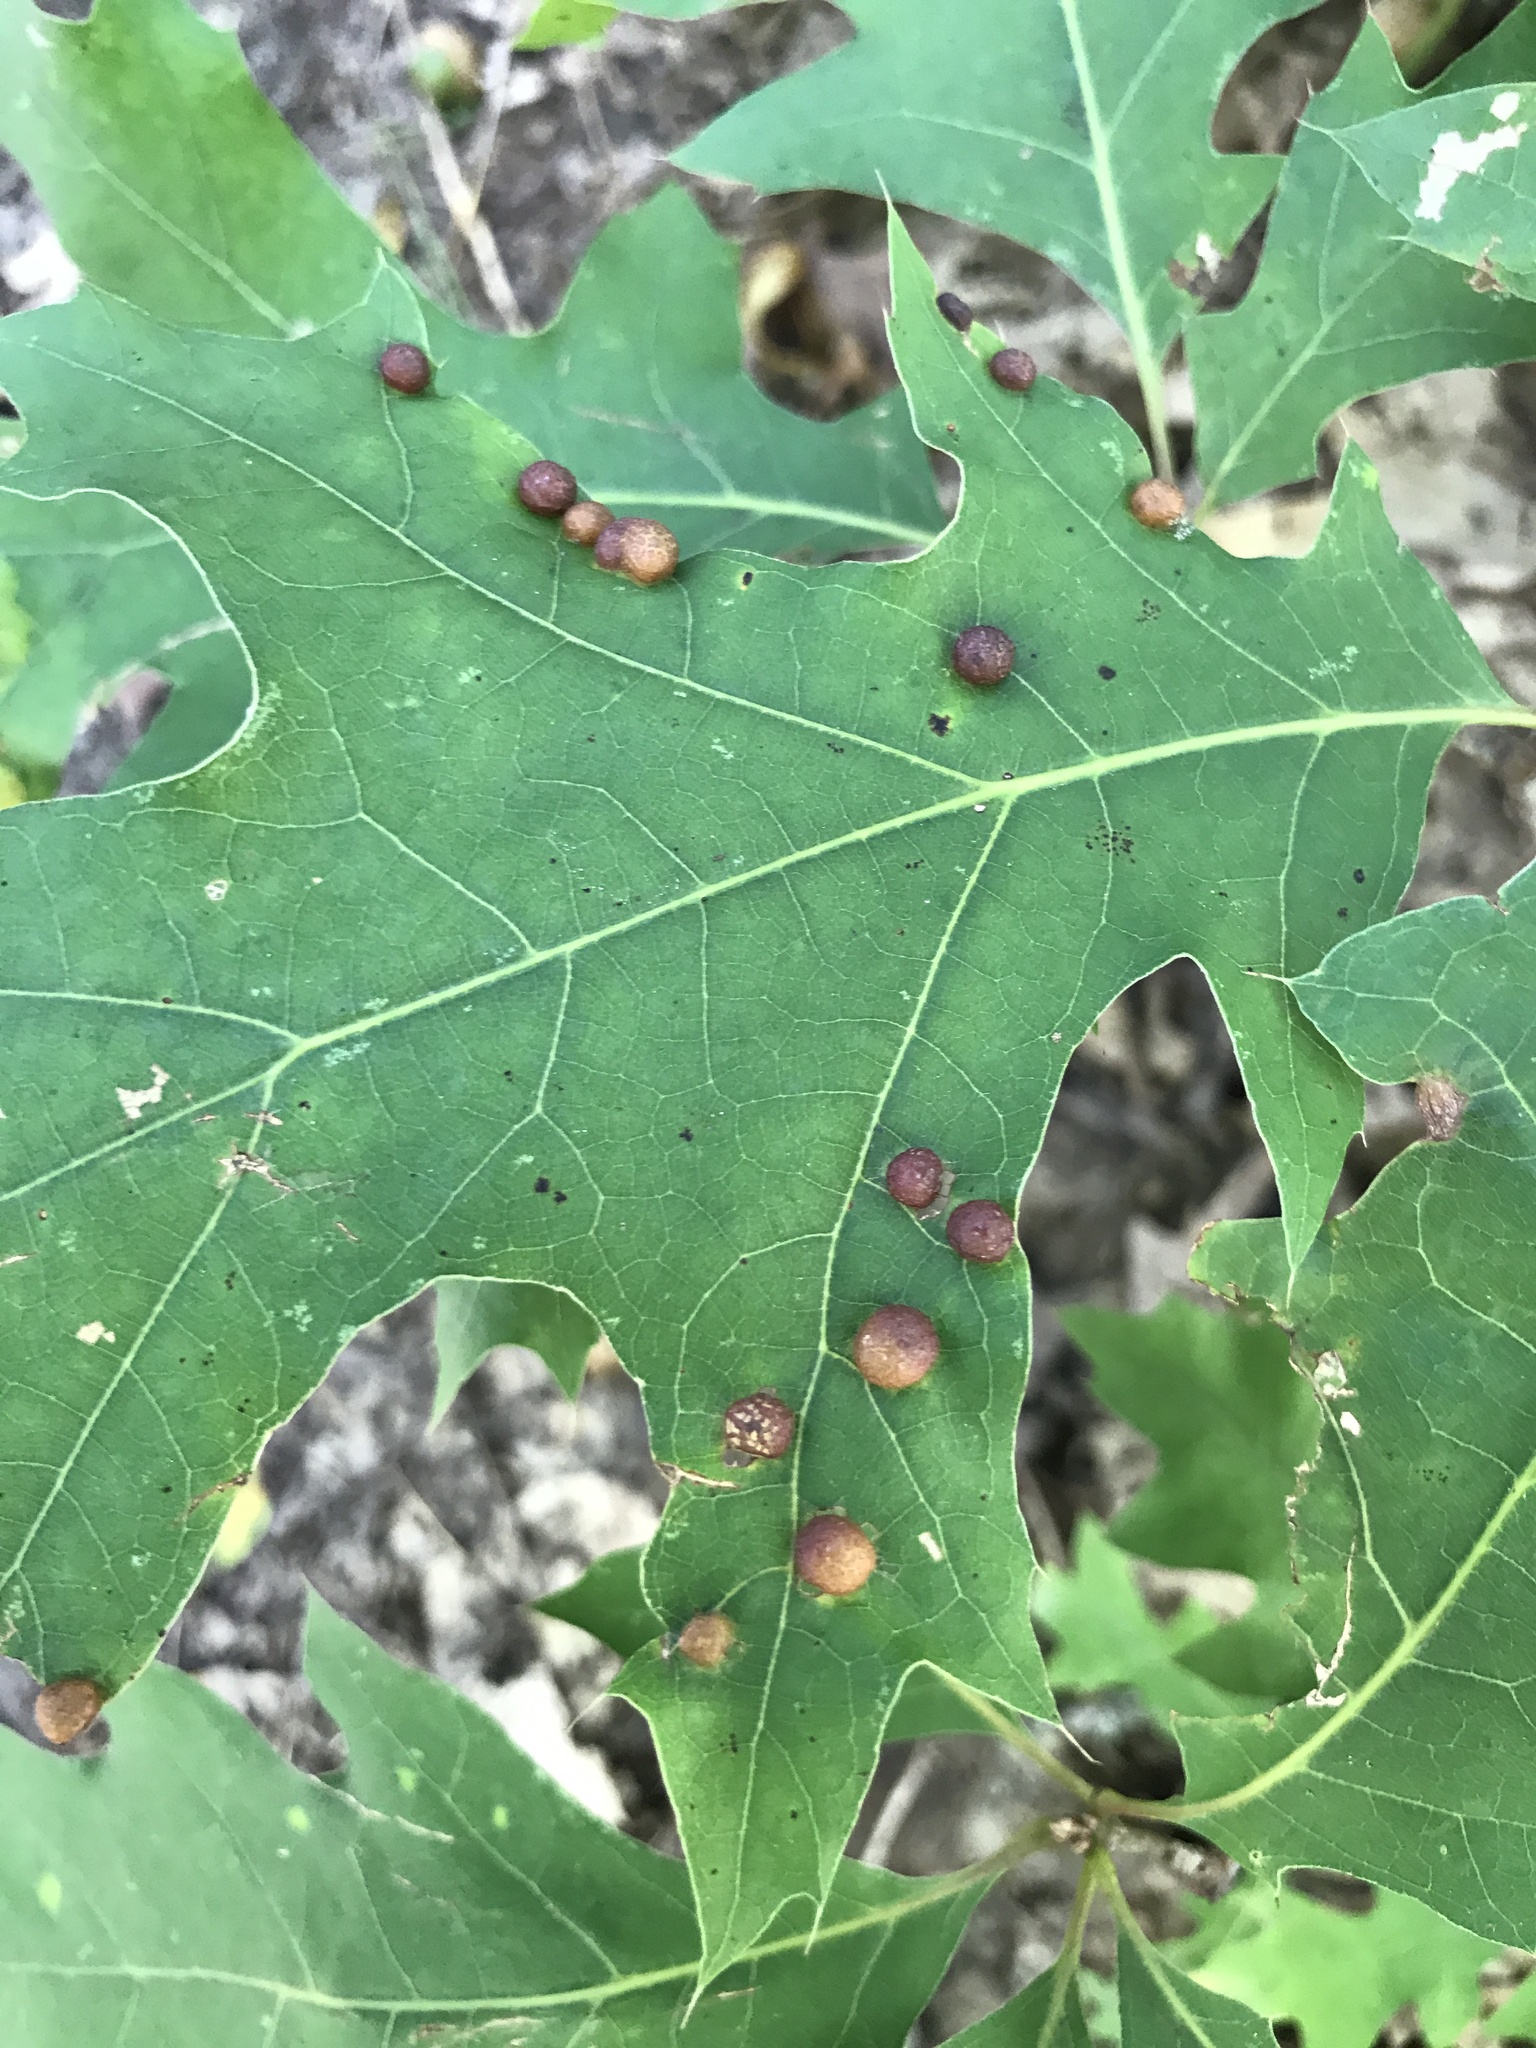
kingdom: Animalia
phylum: Arthropoda
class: Insecta
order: Diptera
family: Cecidomyiidae
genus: Polystepha
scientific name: Polystepha pilulae
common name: Oak leaf gall midge
